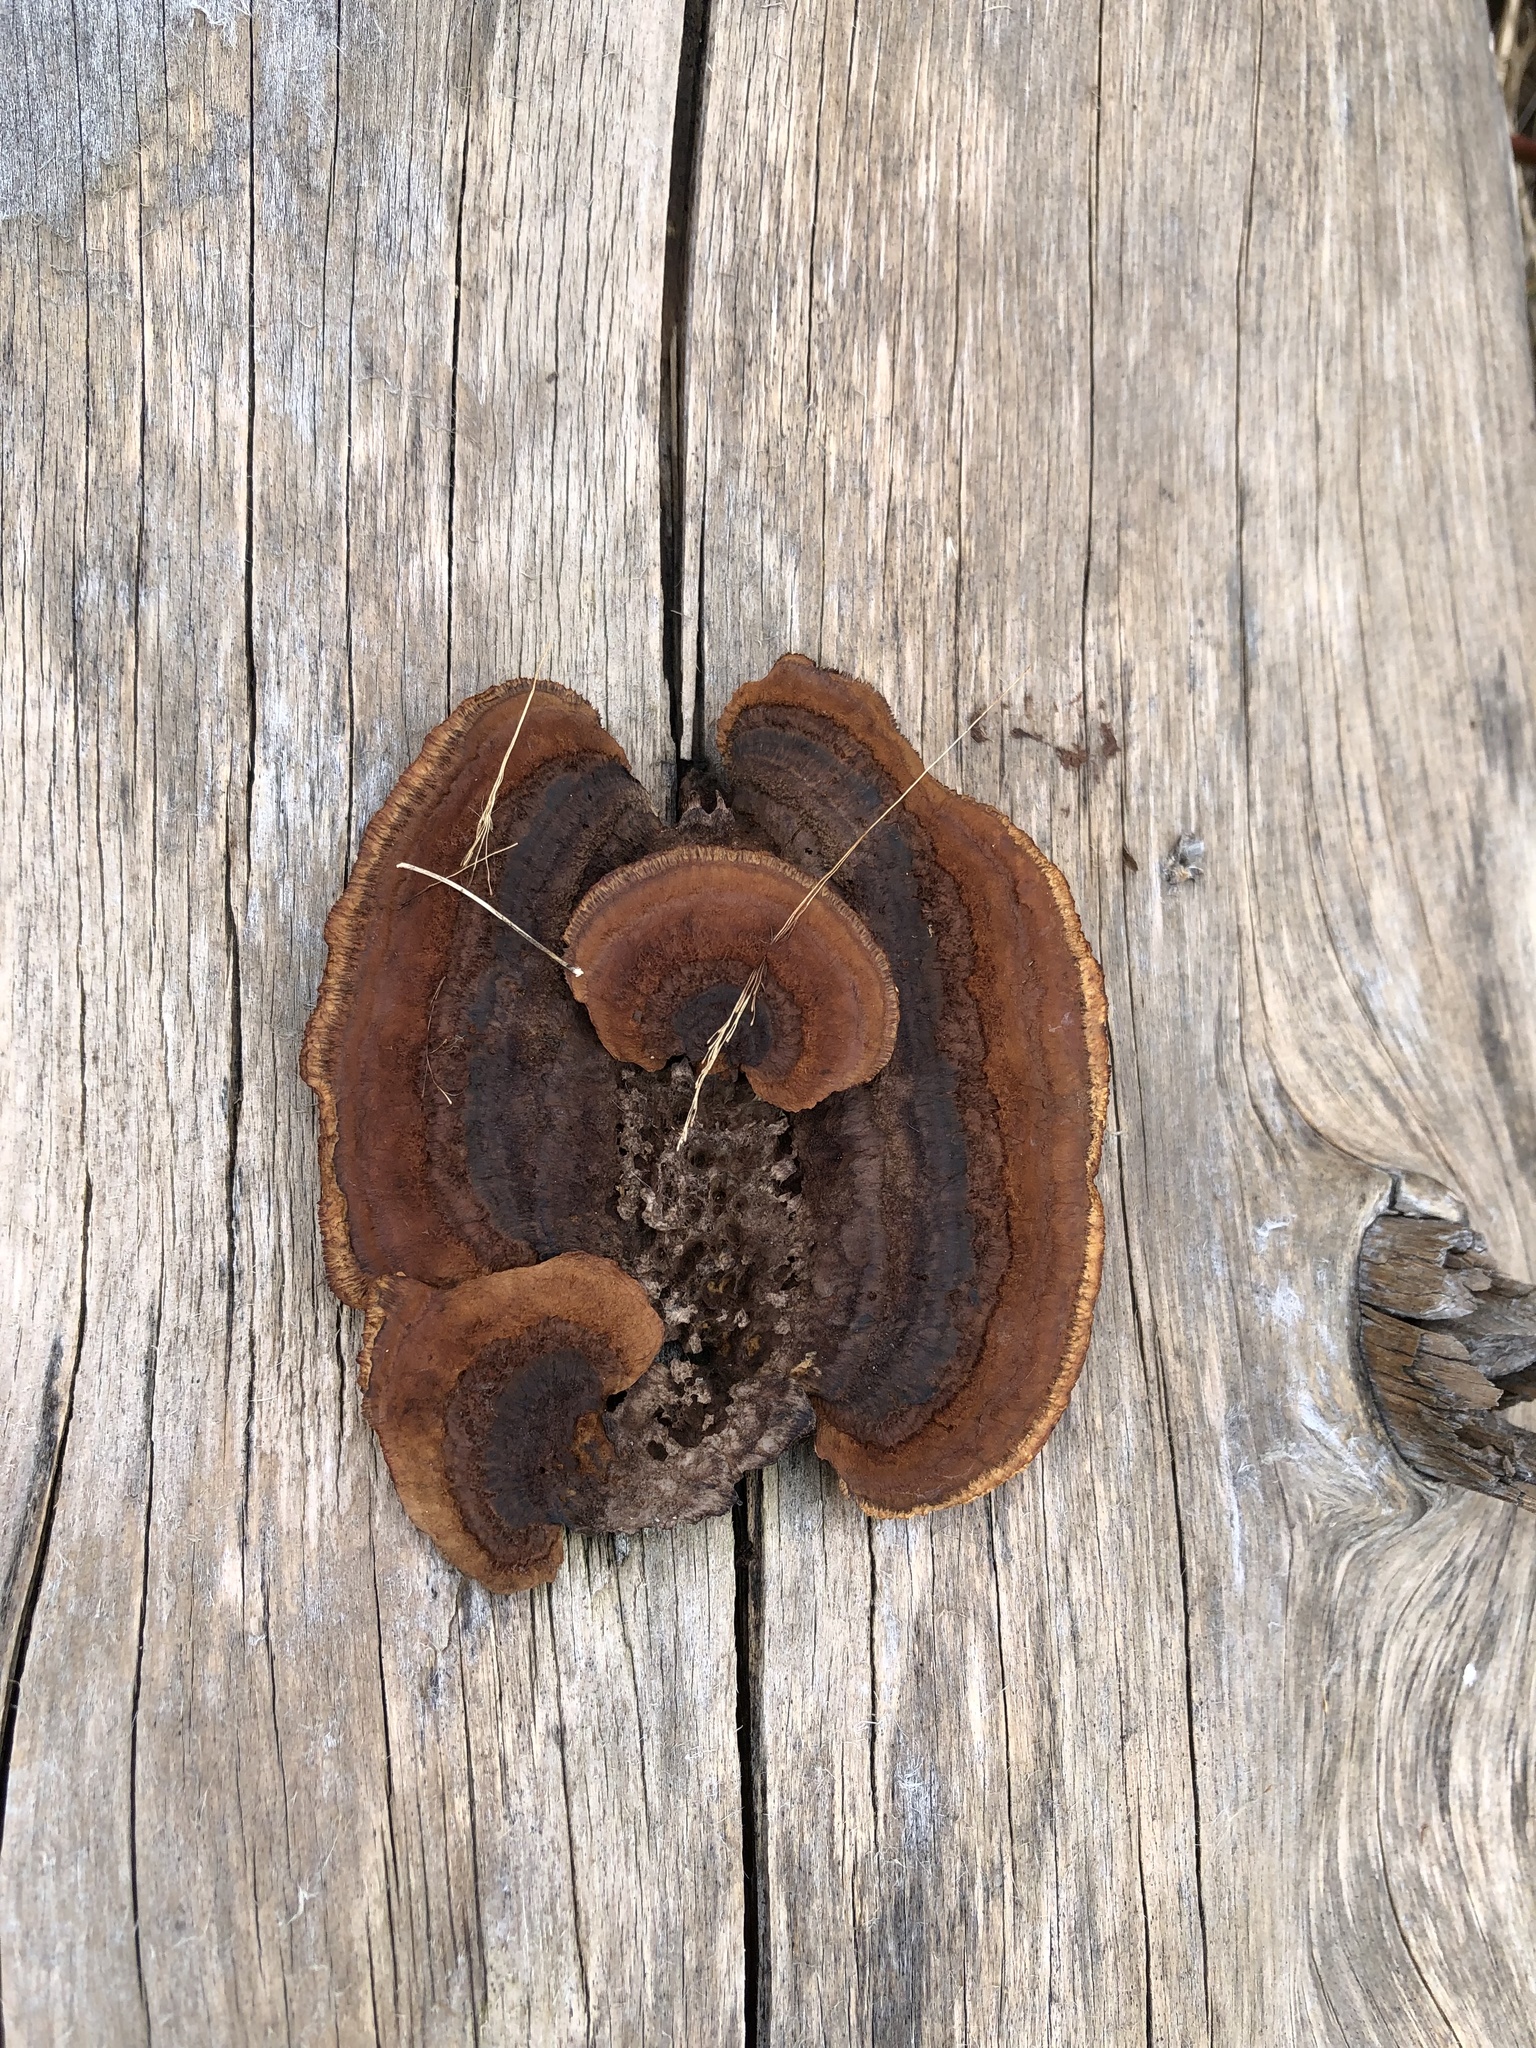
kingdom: Fungi
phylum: Basidiomycota
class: Agaricomycetes
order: Gloeophyllales
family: Gloeophyllaceae
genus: Gloeophyllum
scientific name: Gloeophyllum sepiarium
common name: Conifer mazegill
